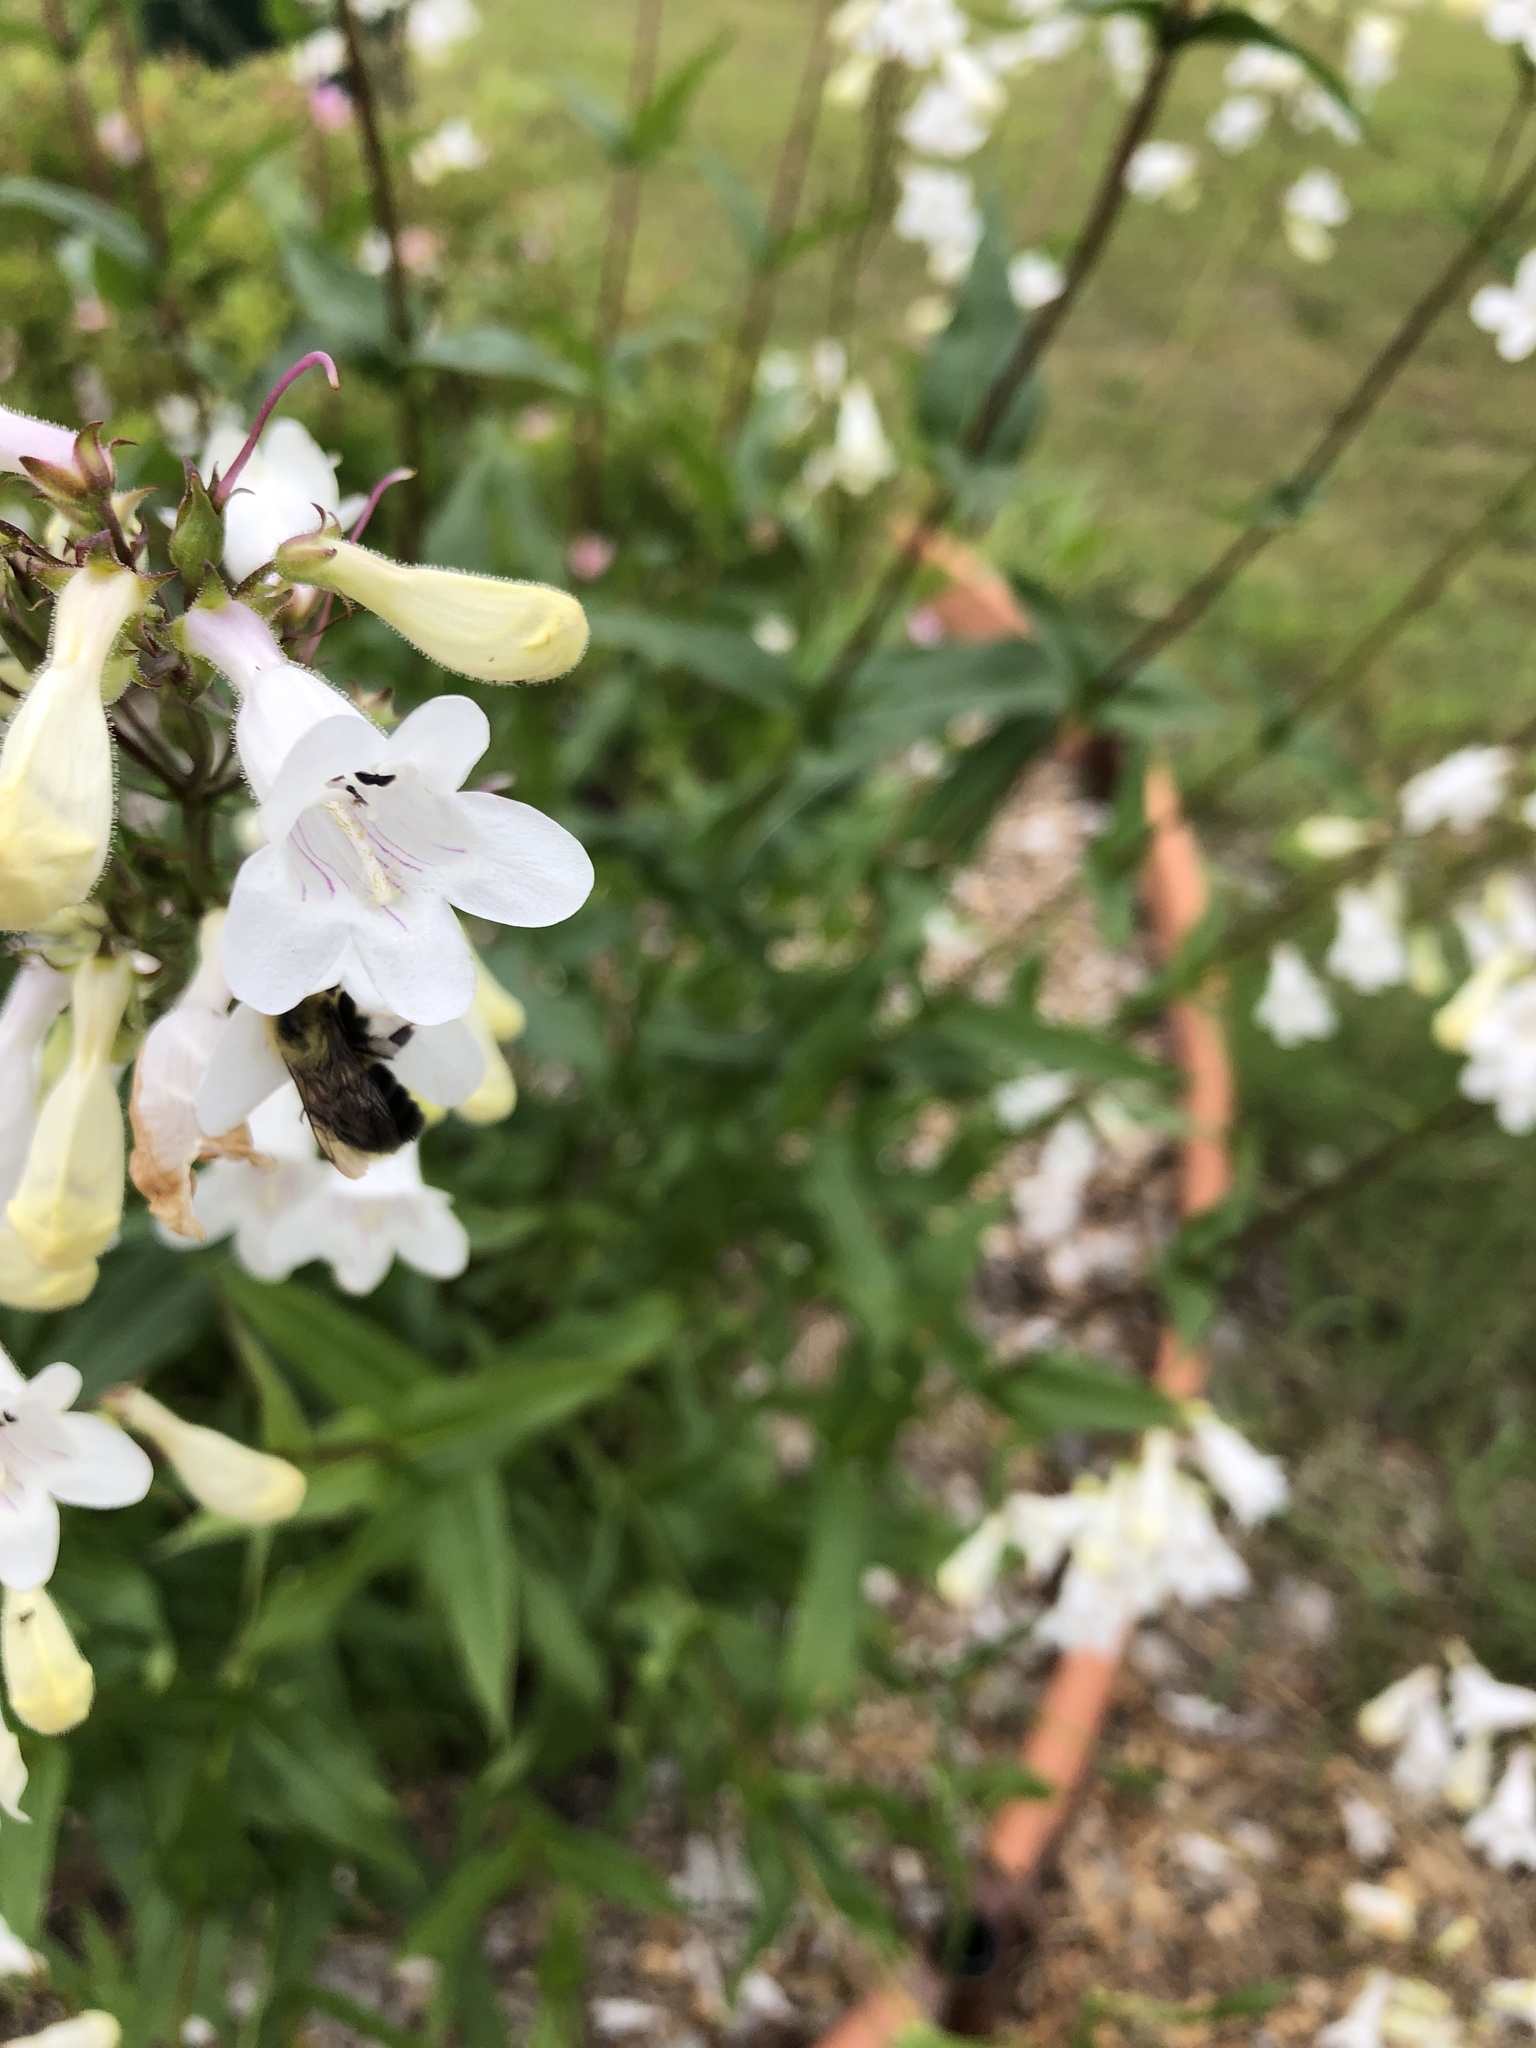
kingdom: Animalia
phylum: Arthropoda
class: Insecta
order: Hymenoptera
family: Apidae
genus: Bombus
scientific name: Bombus impatiens
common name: Common eastern bumble bee
